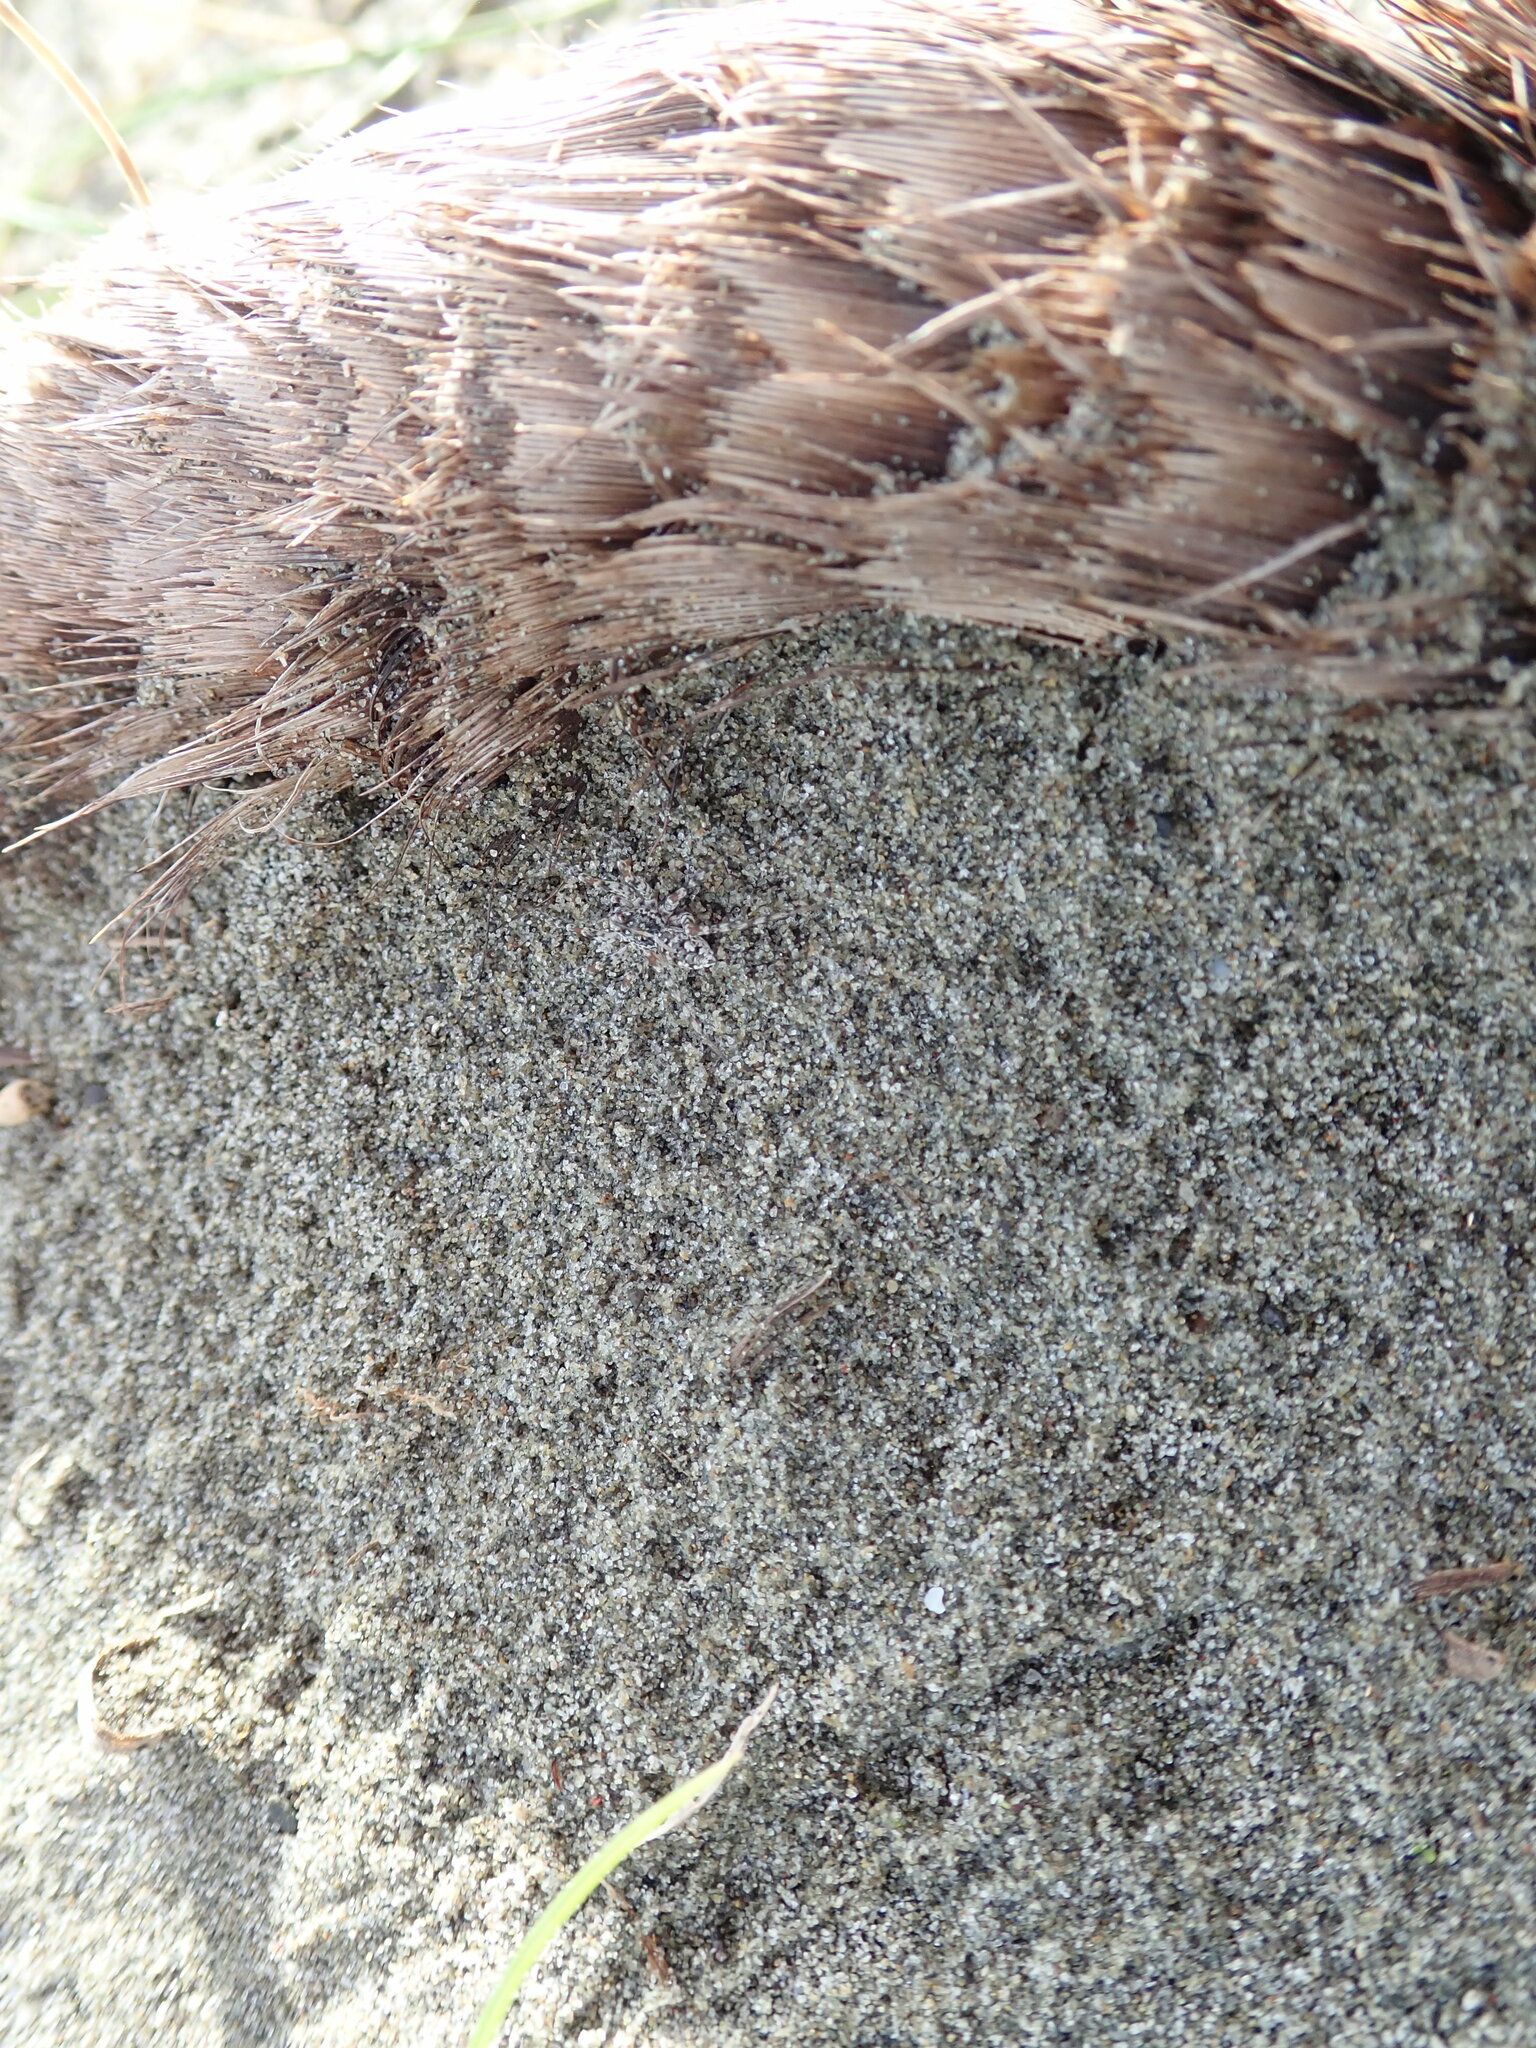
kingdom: Animalia
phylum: Arthropoda
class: Arachnida
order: Araneae
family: Lycosidae
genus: Anoteropsis
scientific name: Anoteropsis litoralis
